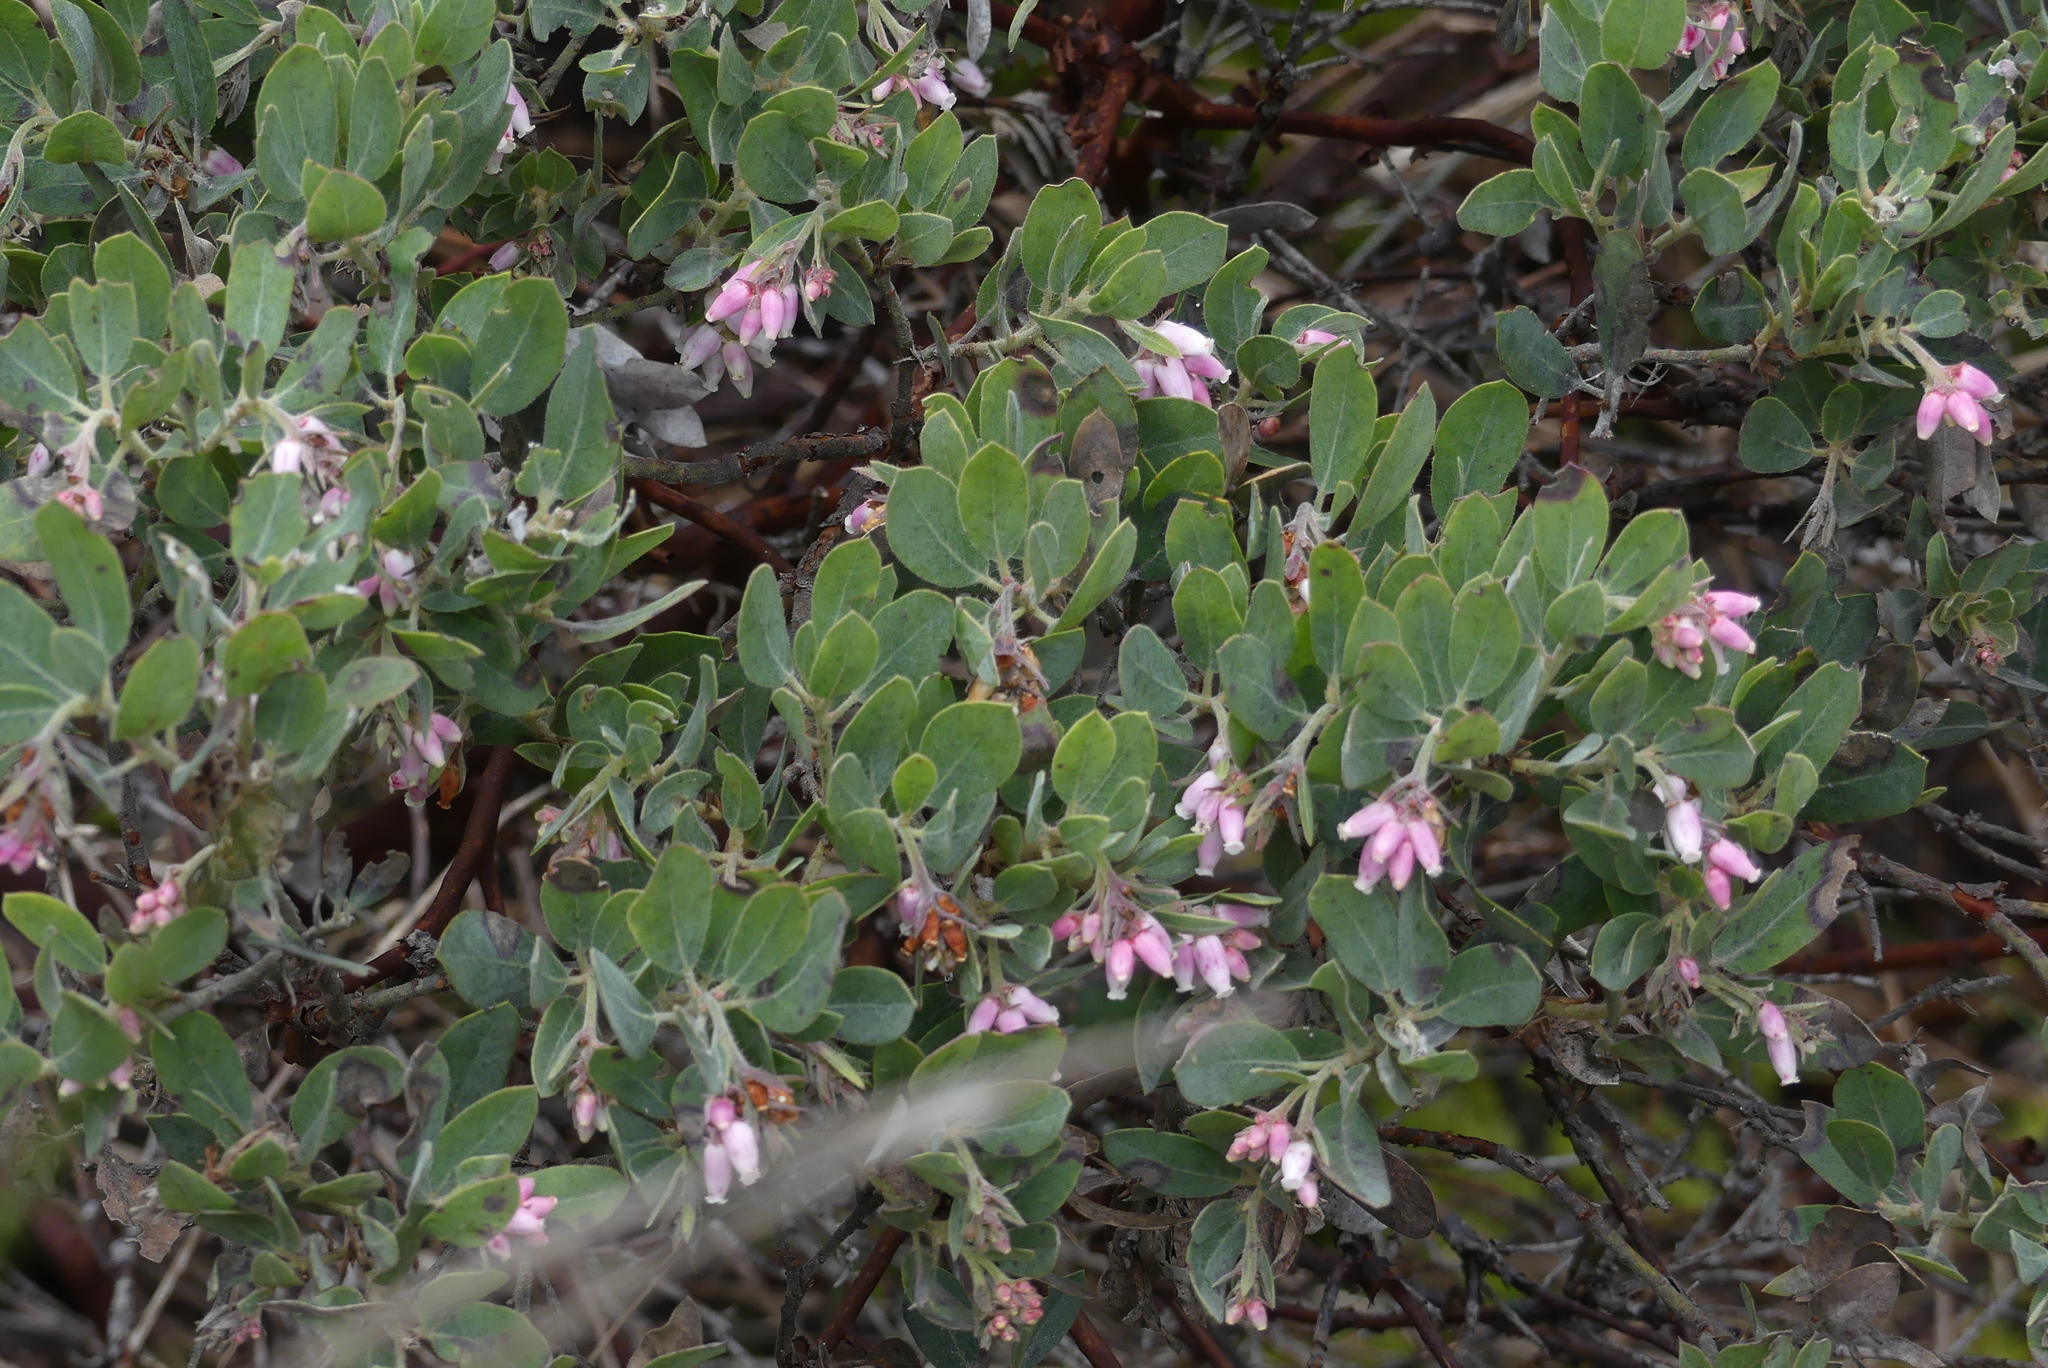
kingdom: Plantae
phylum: Tracheophyta
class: Magnoliopsida
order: Ericales
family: Ericaceae
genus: Arctostaphylos
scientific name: Arctostaphylos columbiana
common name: Bristly bearberry
